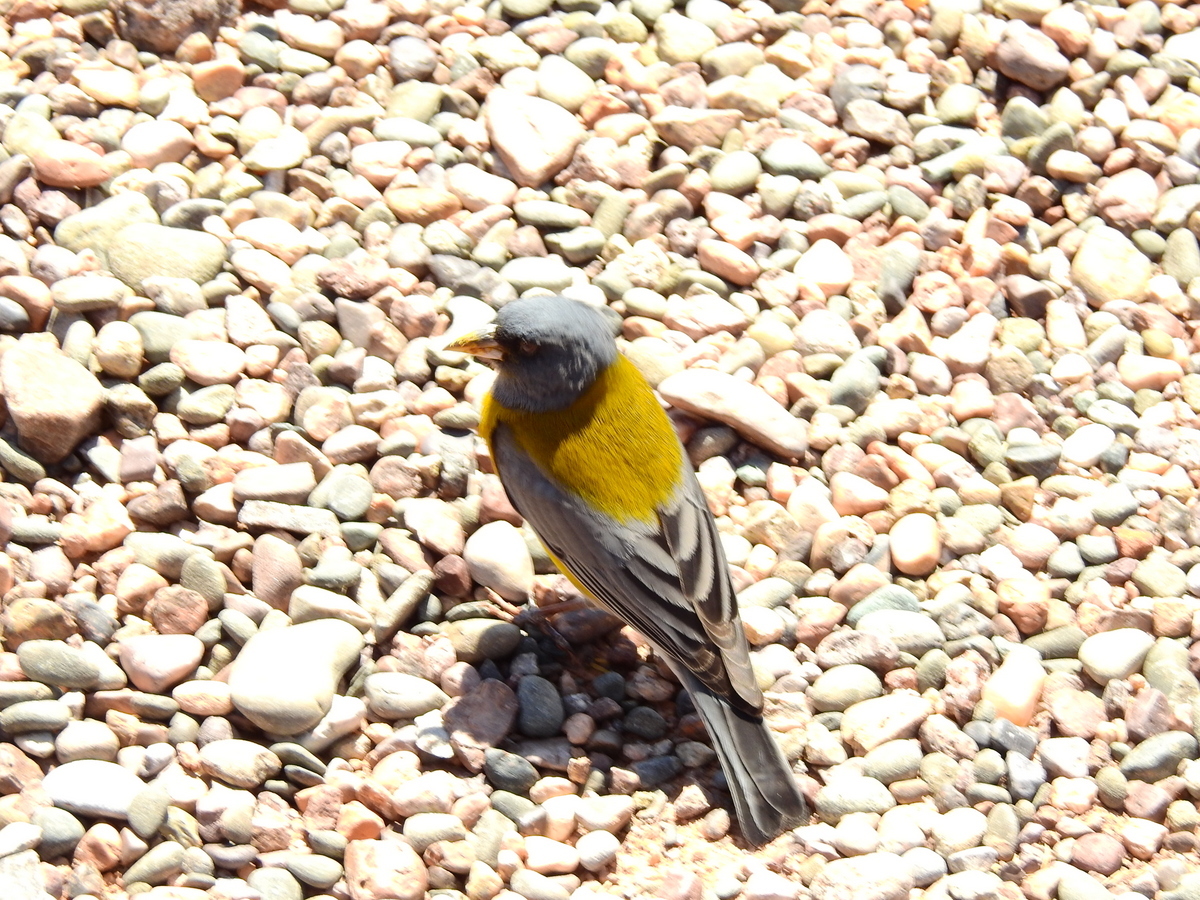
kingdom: Animalia
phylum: Chordata
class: Aves
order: Passeriformes
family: Thraupidae
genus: Phrygilus
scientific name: Phrygilus gayi
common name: Grey-hooded sierra finch
